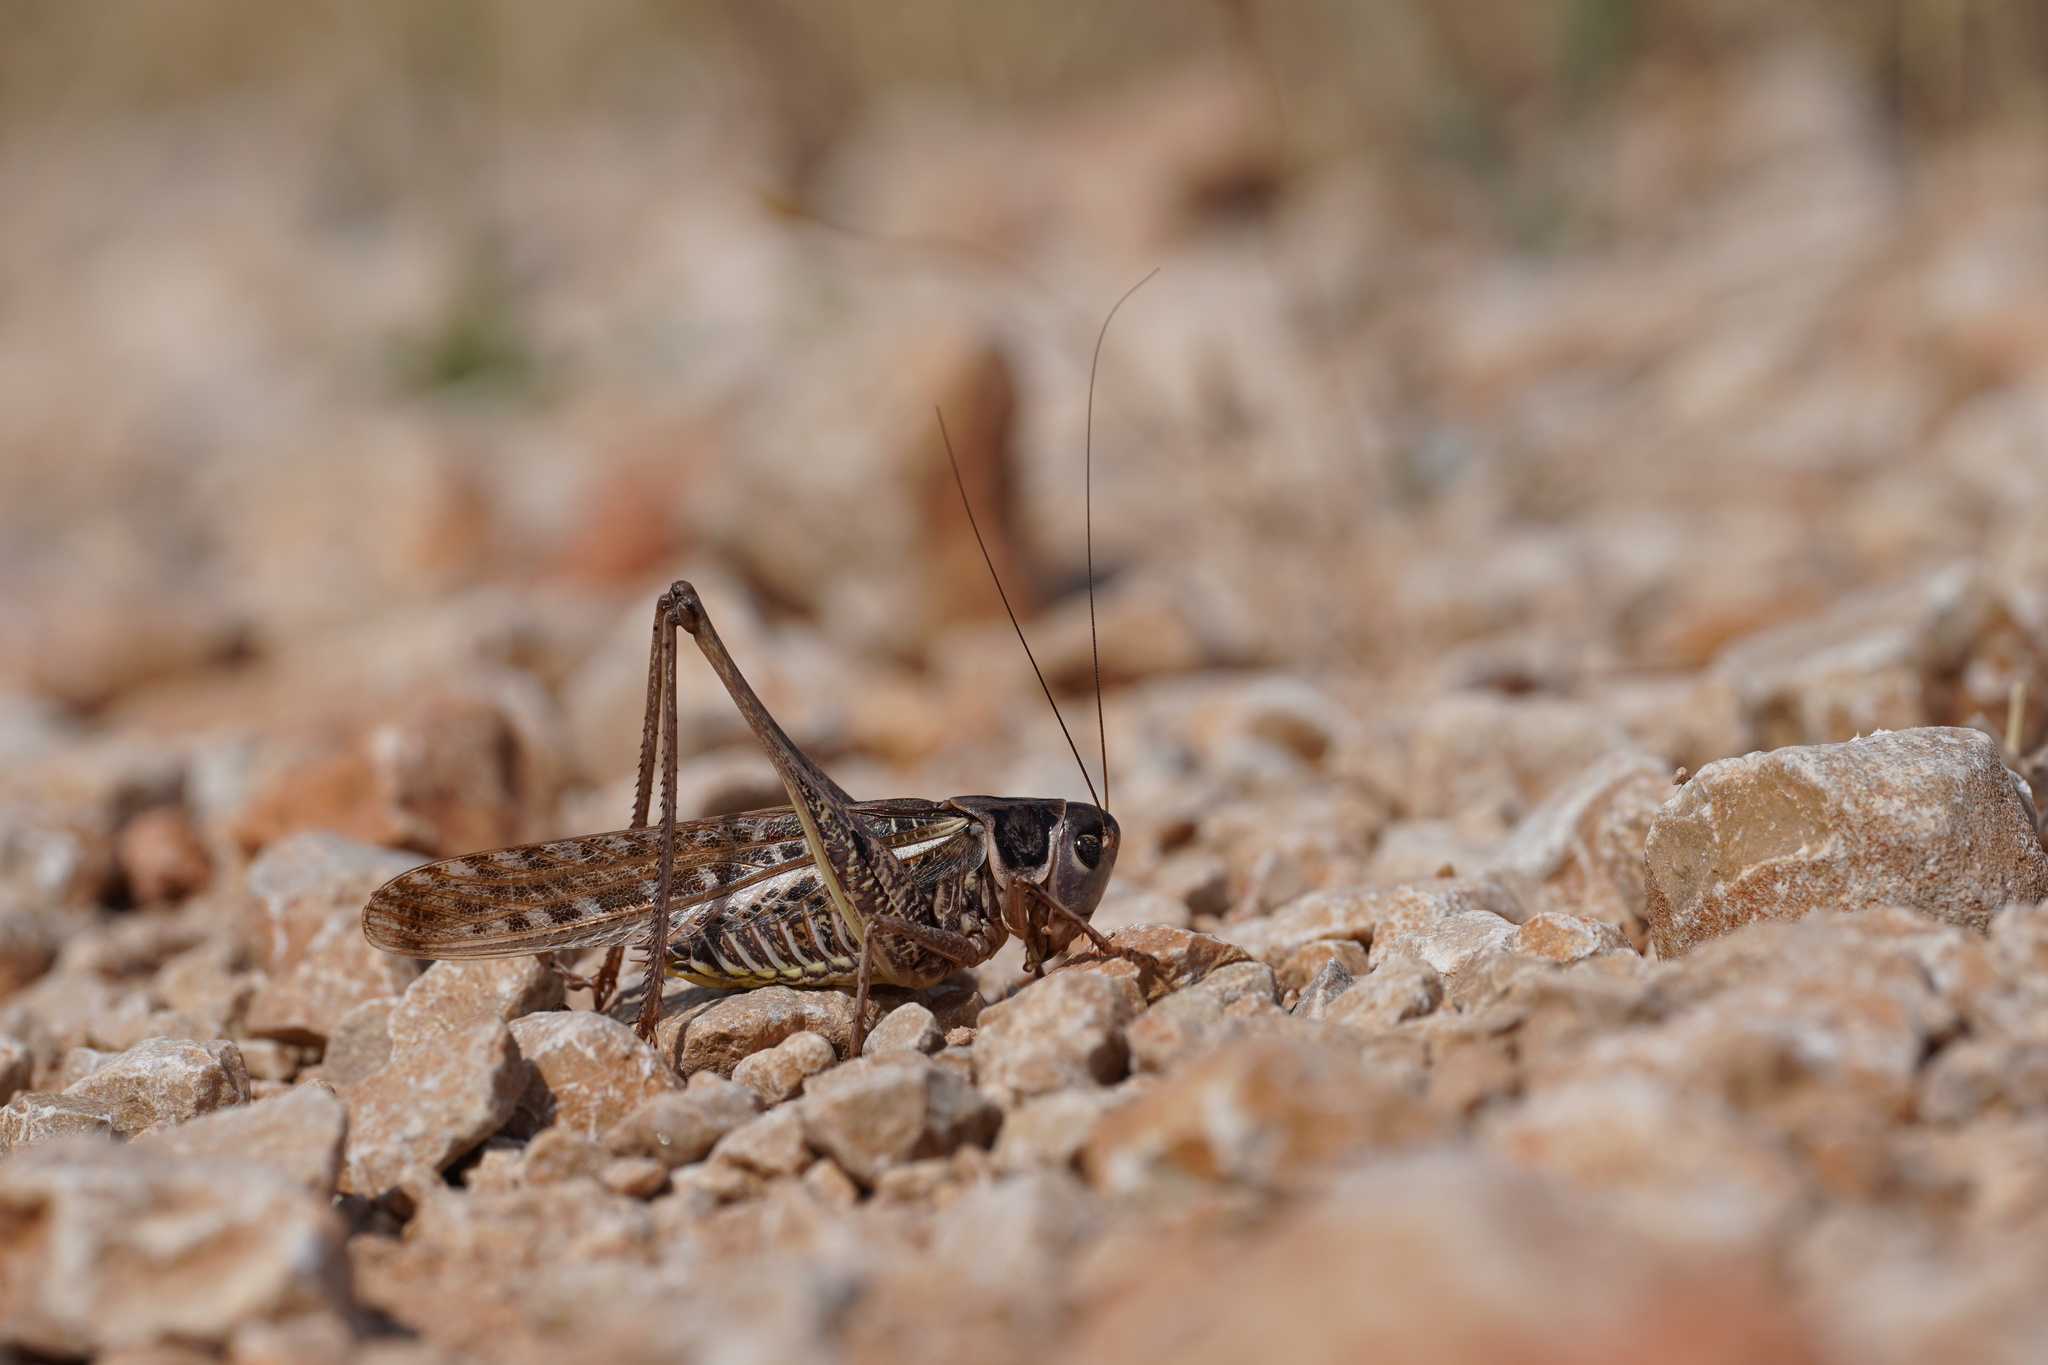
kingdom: Animalia
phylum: Arthropoda
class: Insecta
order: Orthoptera
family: Tettigoniidae
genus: Decticus
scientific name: Decticus albifrons
